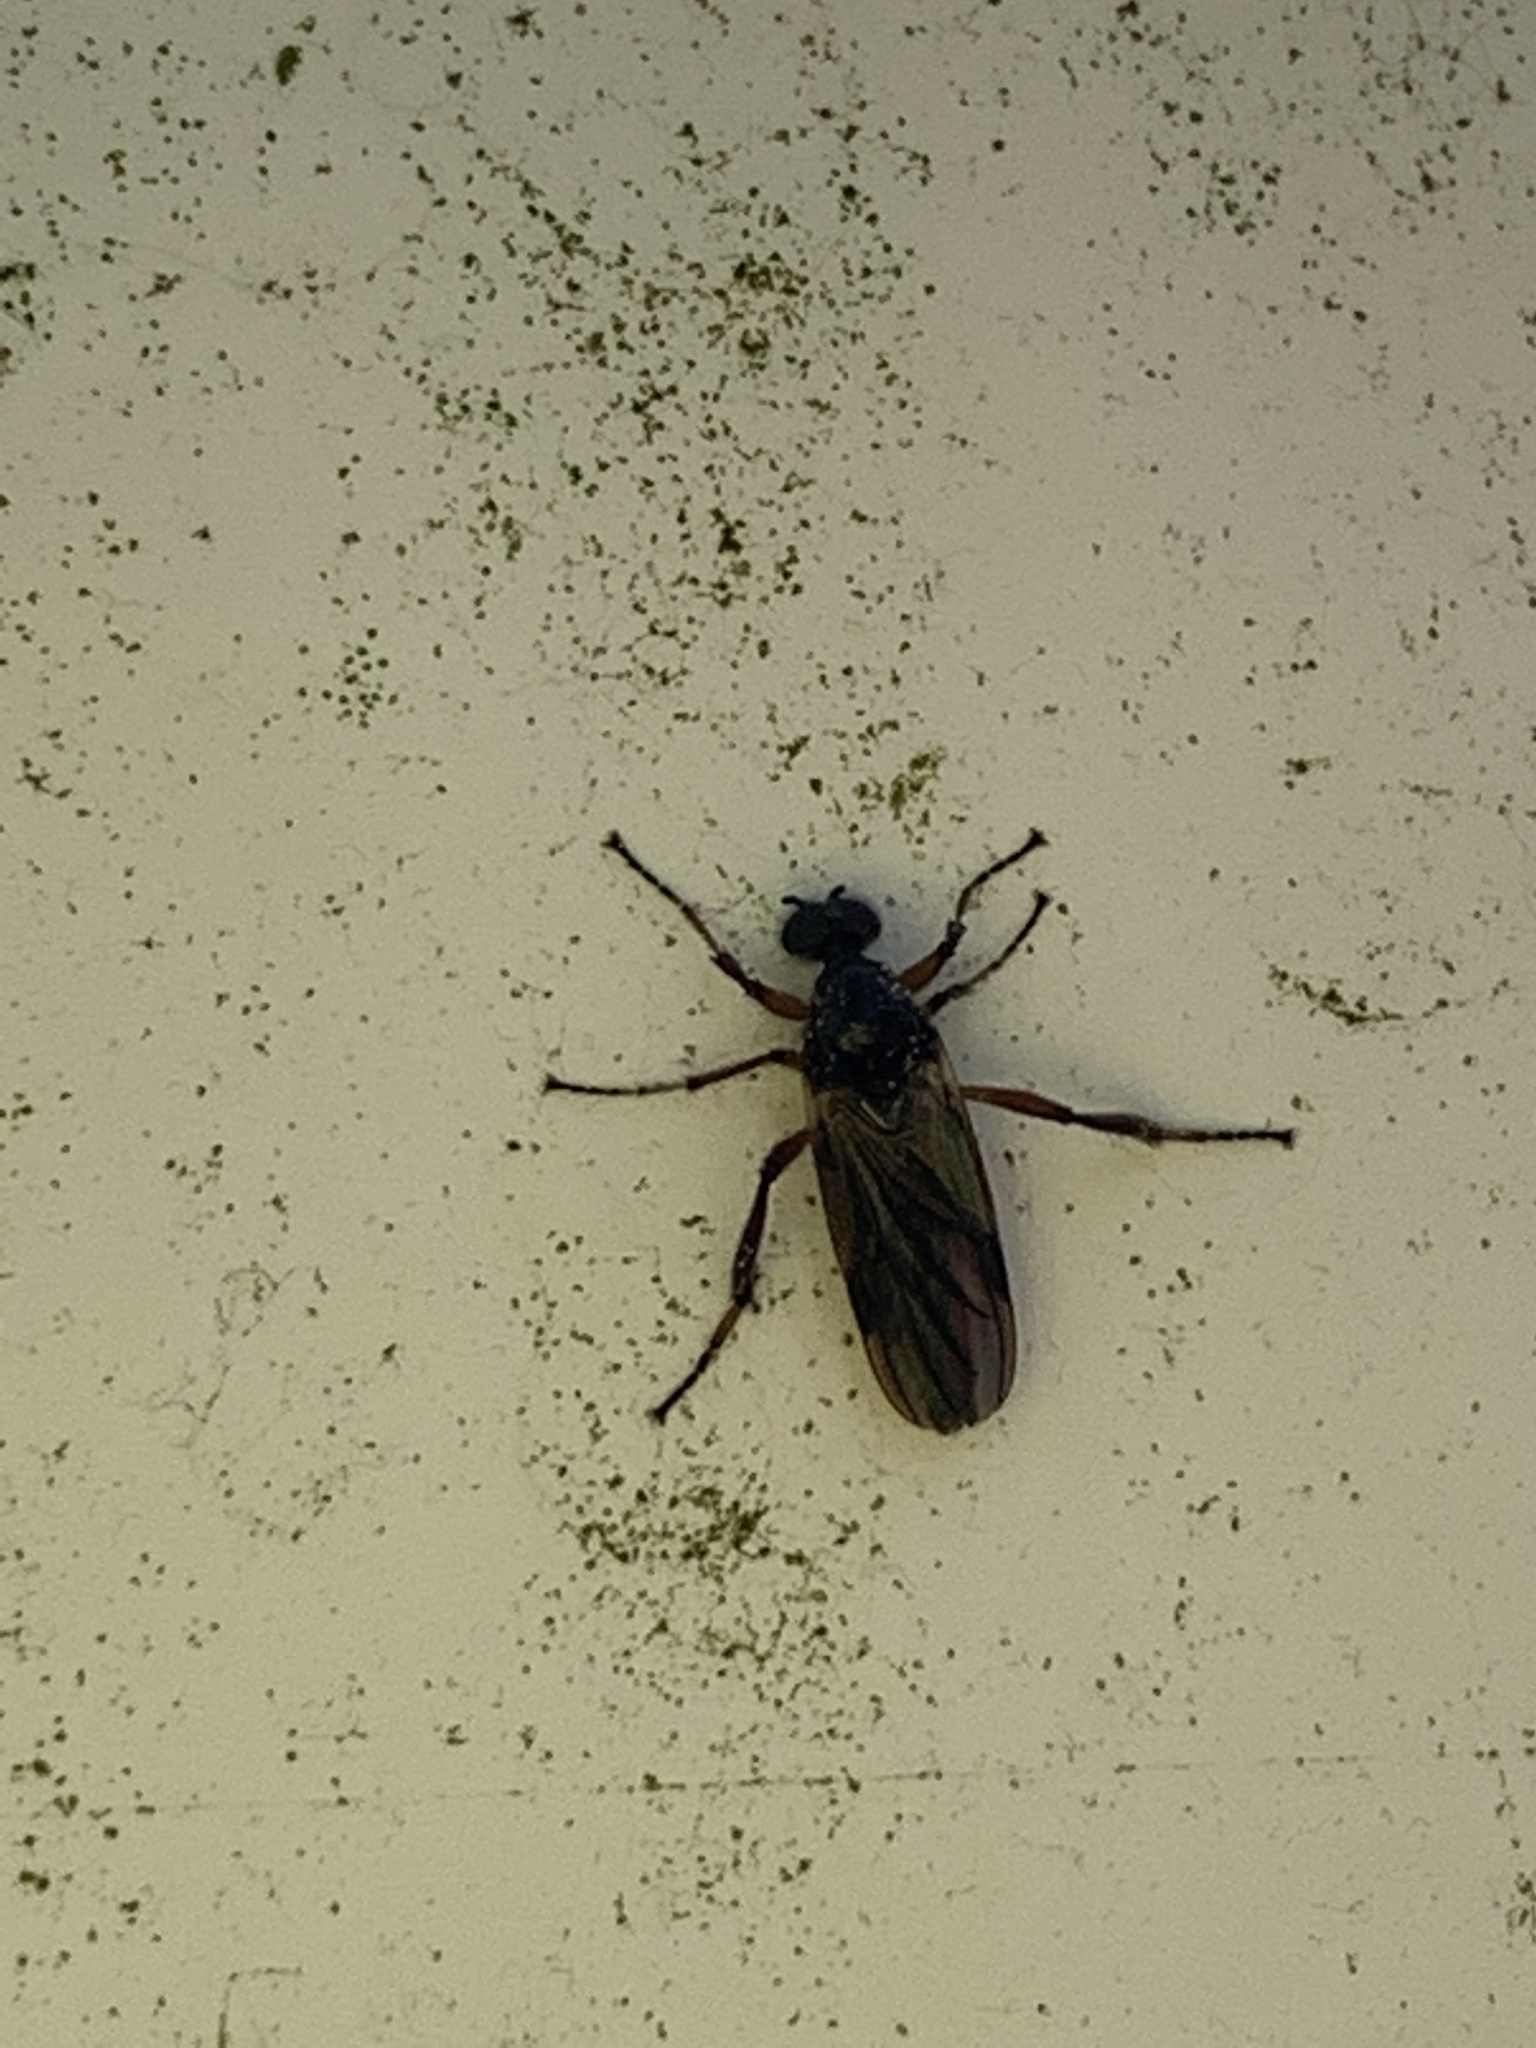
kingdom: Animalia
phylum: Arthropoda
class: Insecta
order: Diptera
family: Bibionidae
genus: Bibio
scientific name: Bibio
